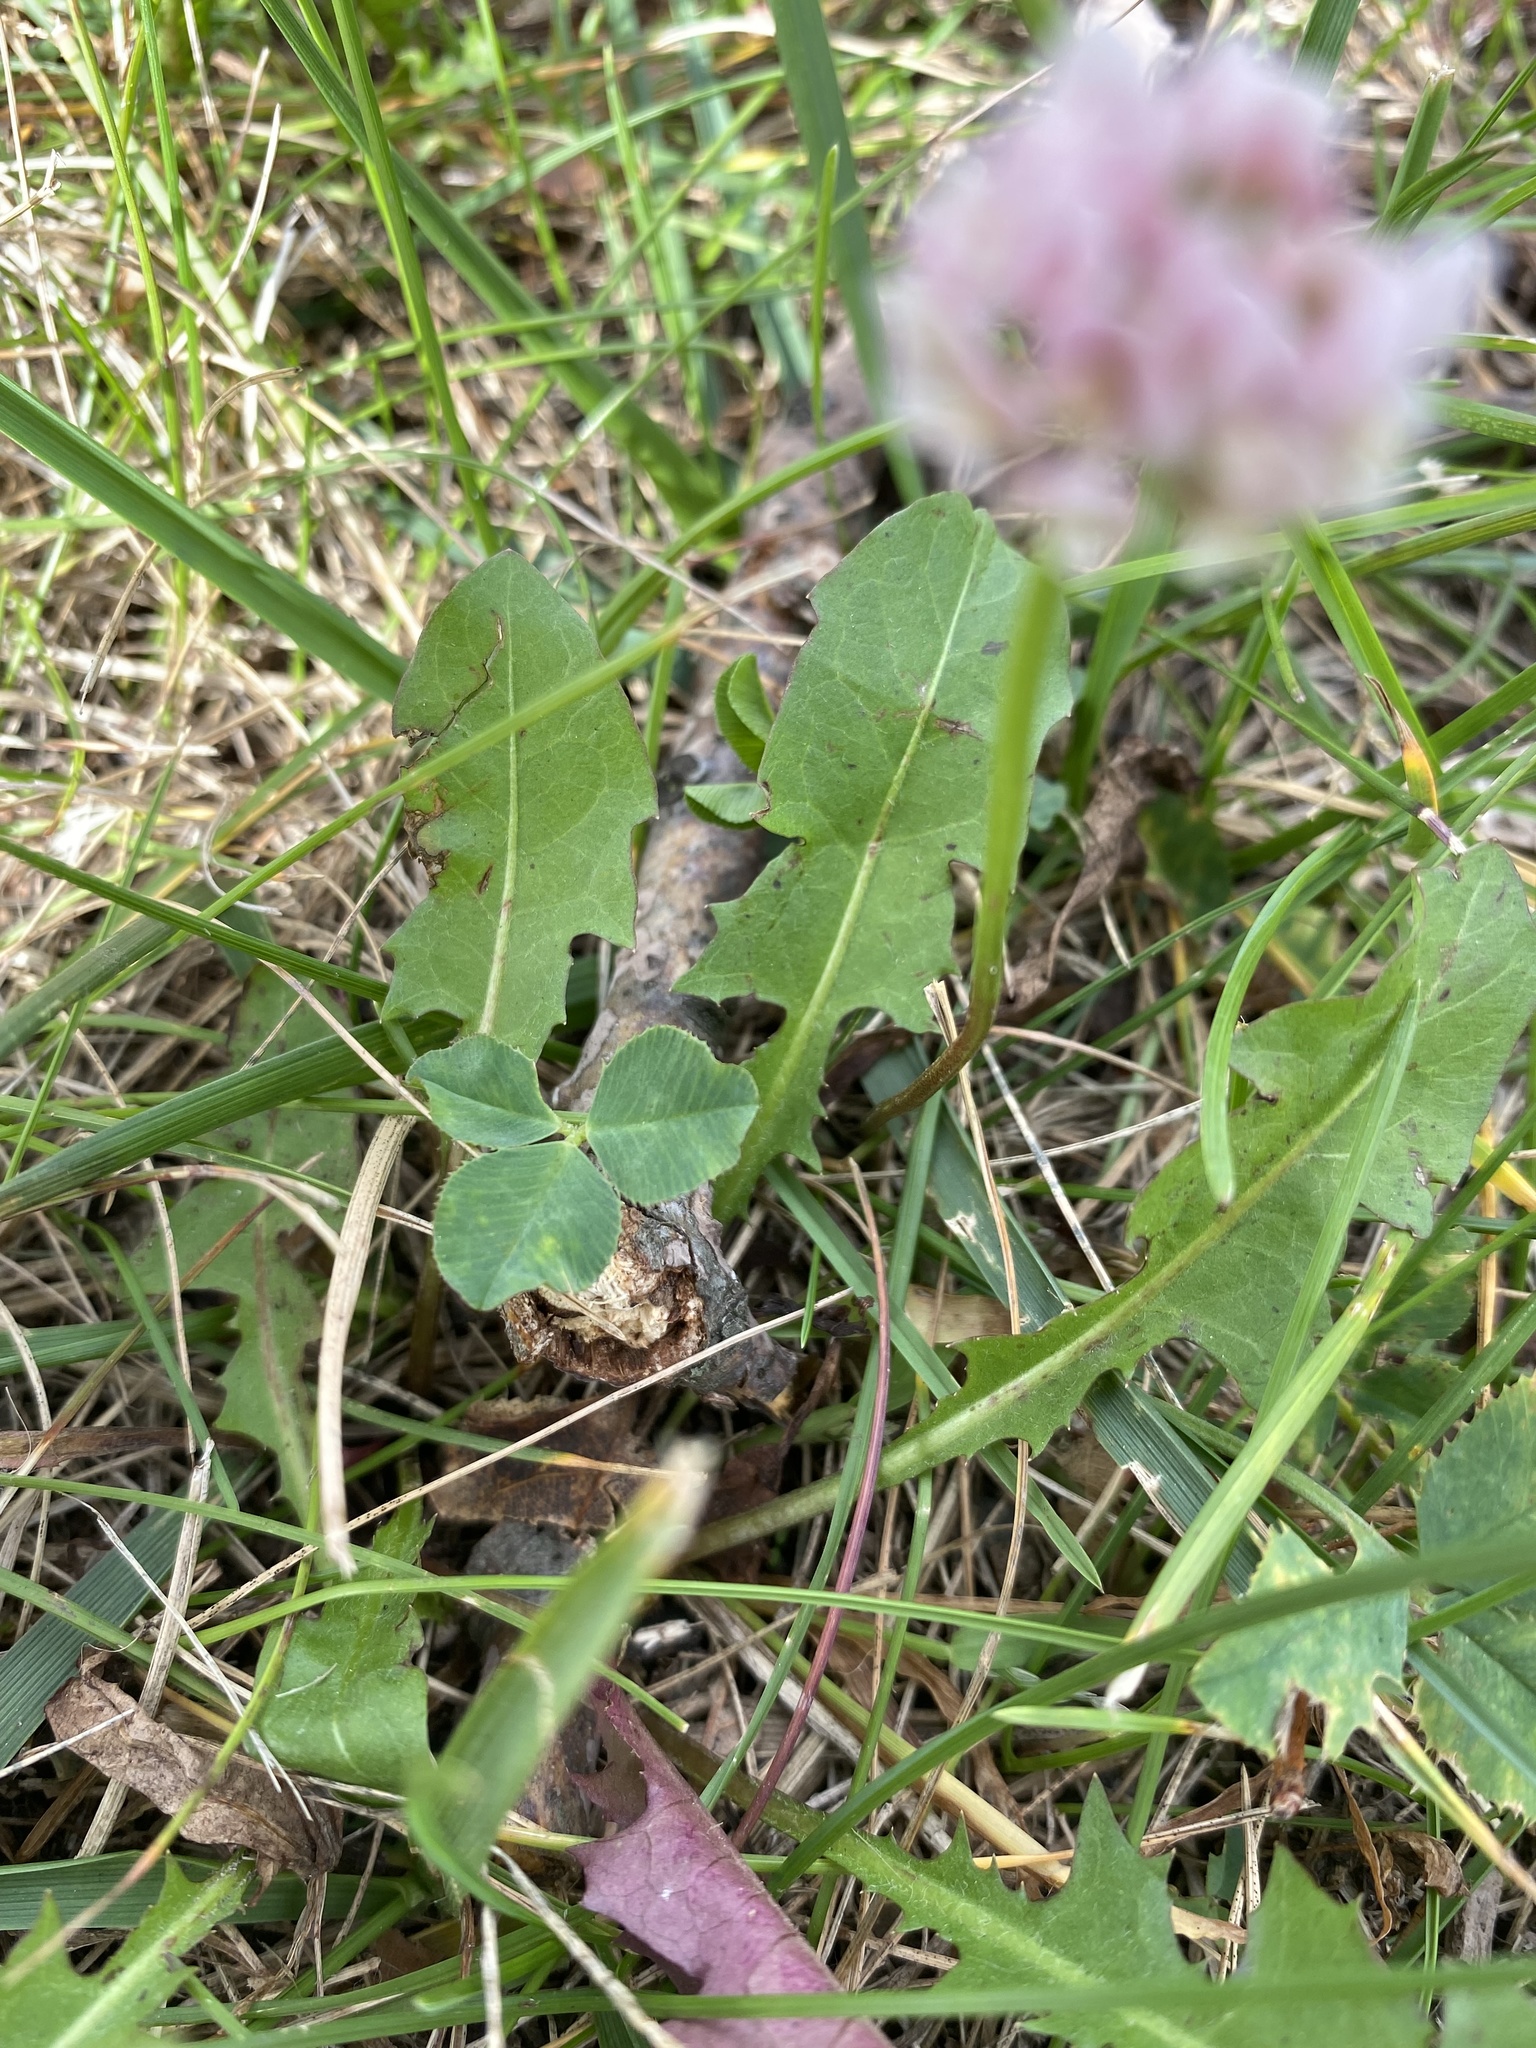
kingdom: Plantae
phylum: Tracheophyta
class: Magnoliopsida
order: Fabales
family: Fabaceae
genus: Trifolium
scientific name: Trifolium repens
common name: White clover
